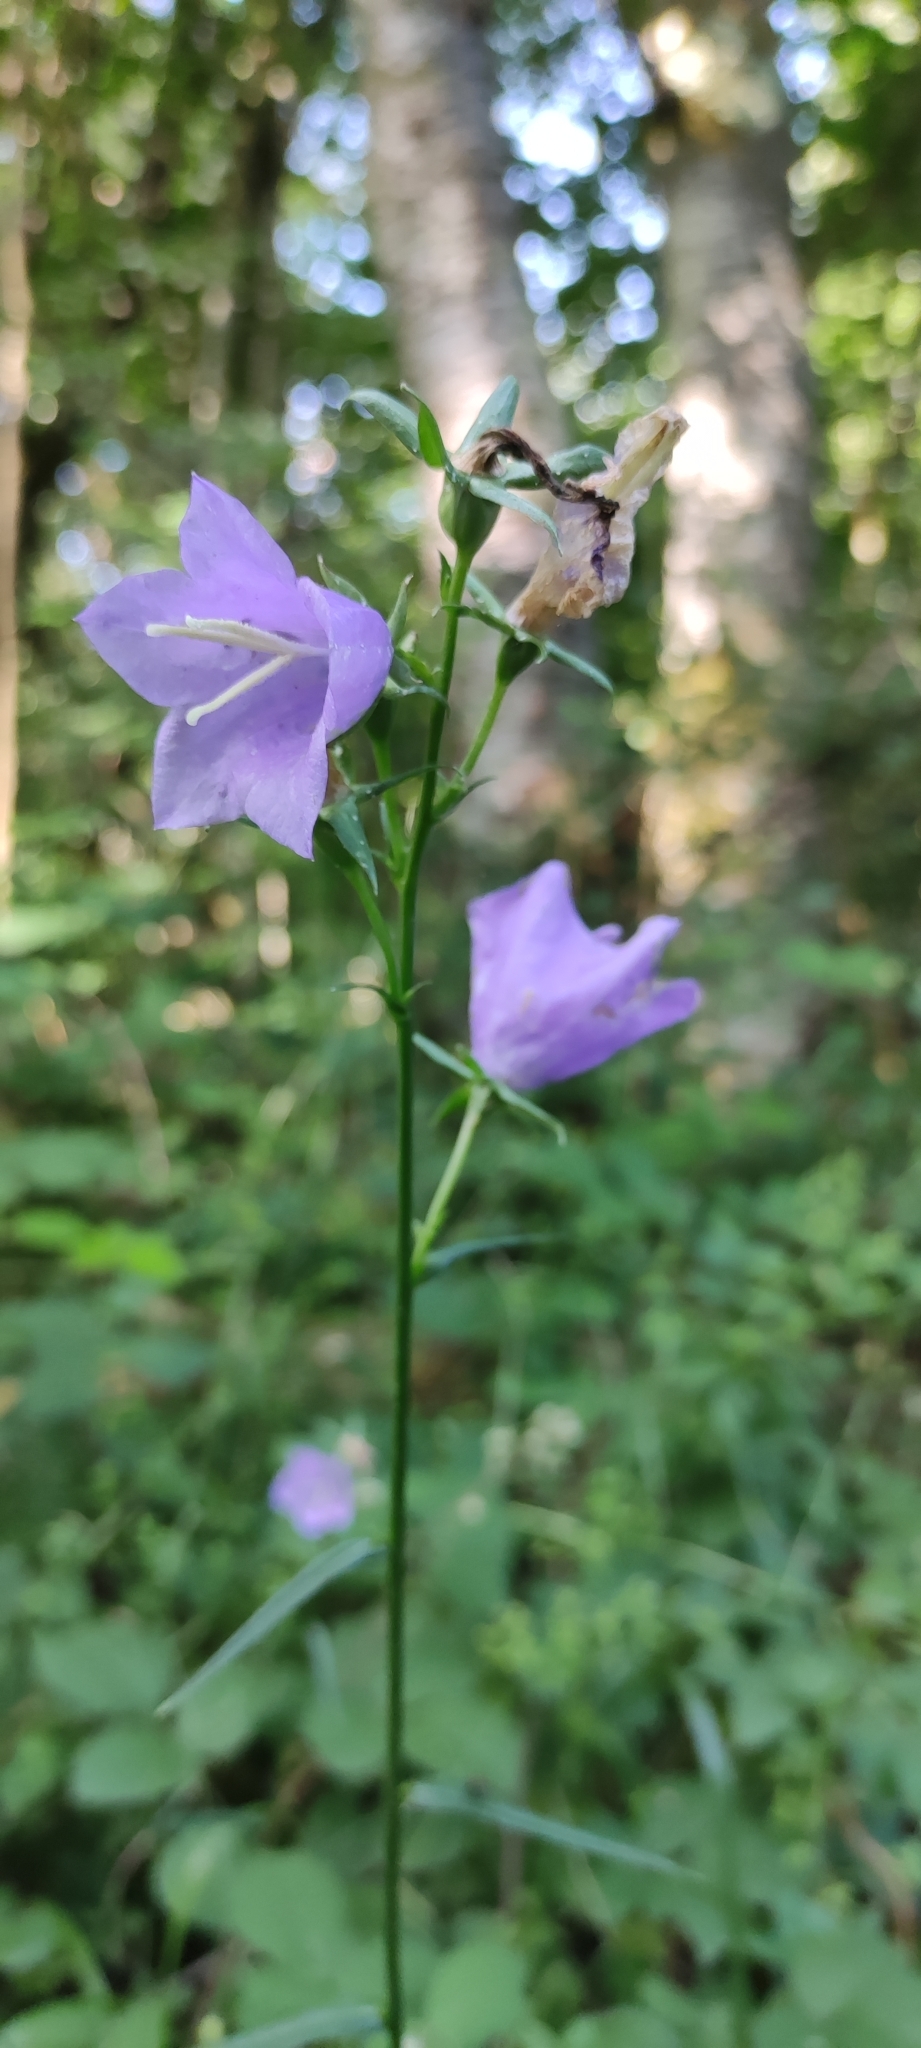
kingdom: Plantae
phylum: Tracheophyta
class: Magnoliopsida
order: Asterales
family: Campanulaceae
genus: Campanula
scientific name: Campanula persicifolia
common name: Peach-leaved bellflower
